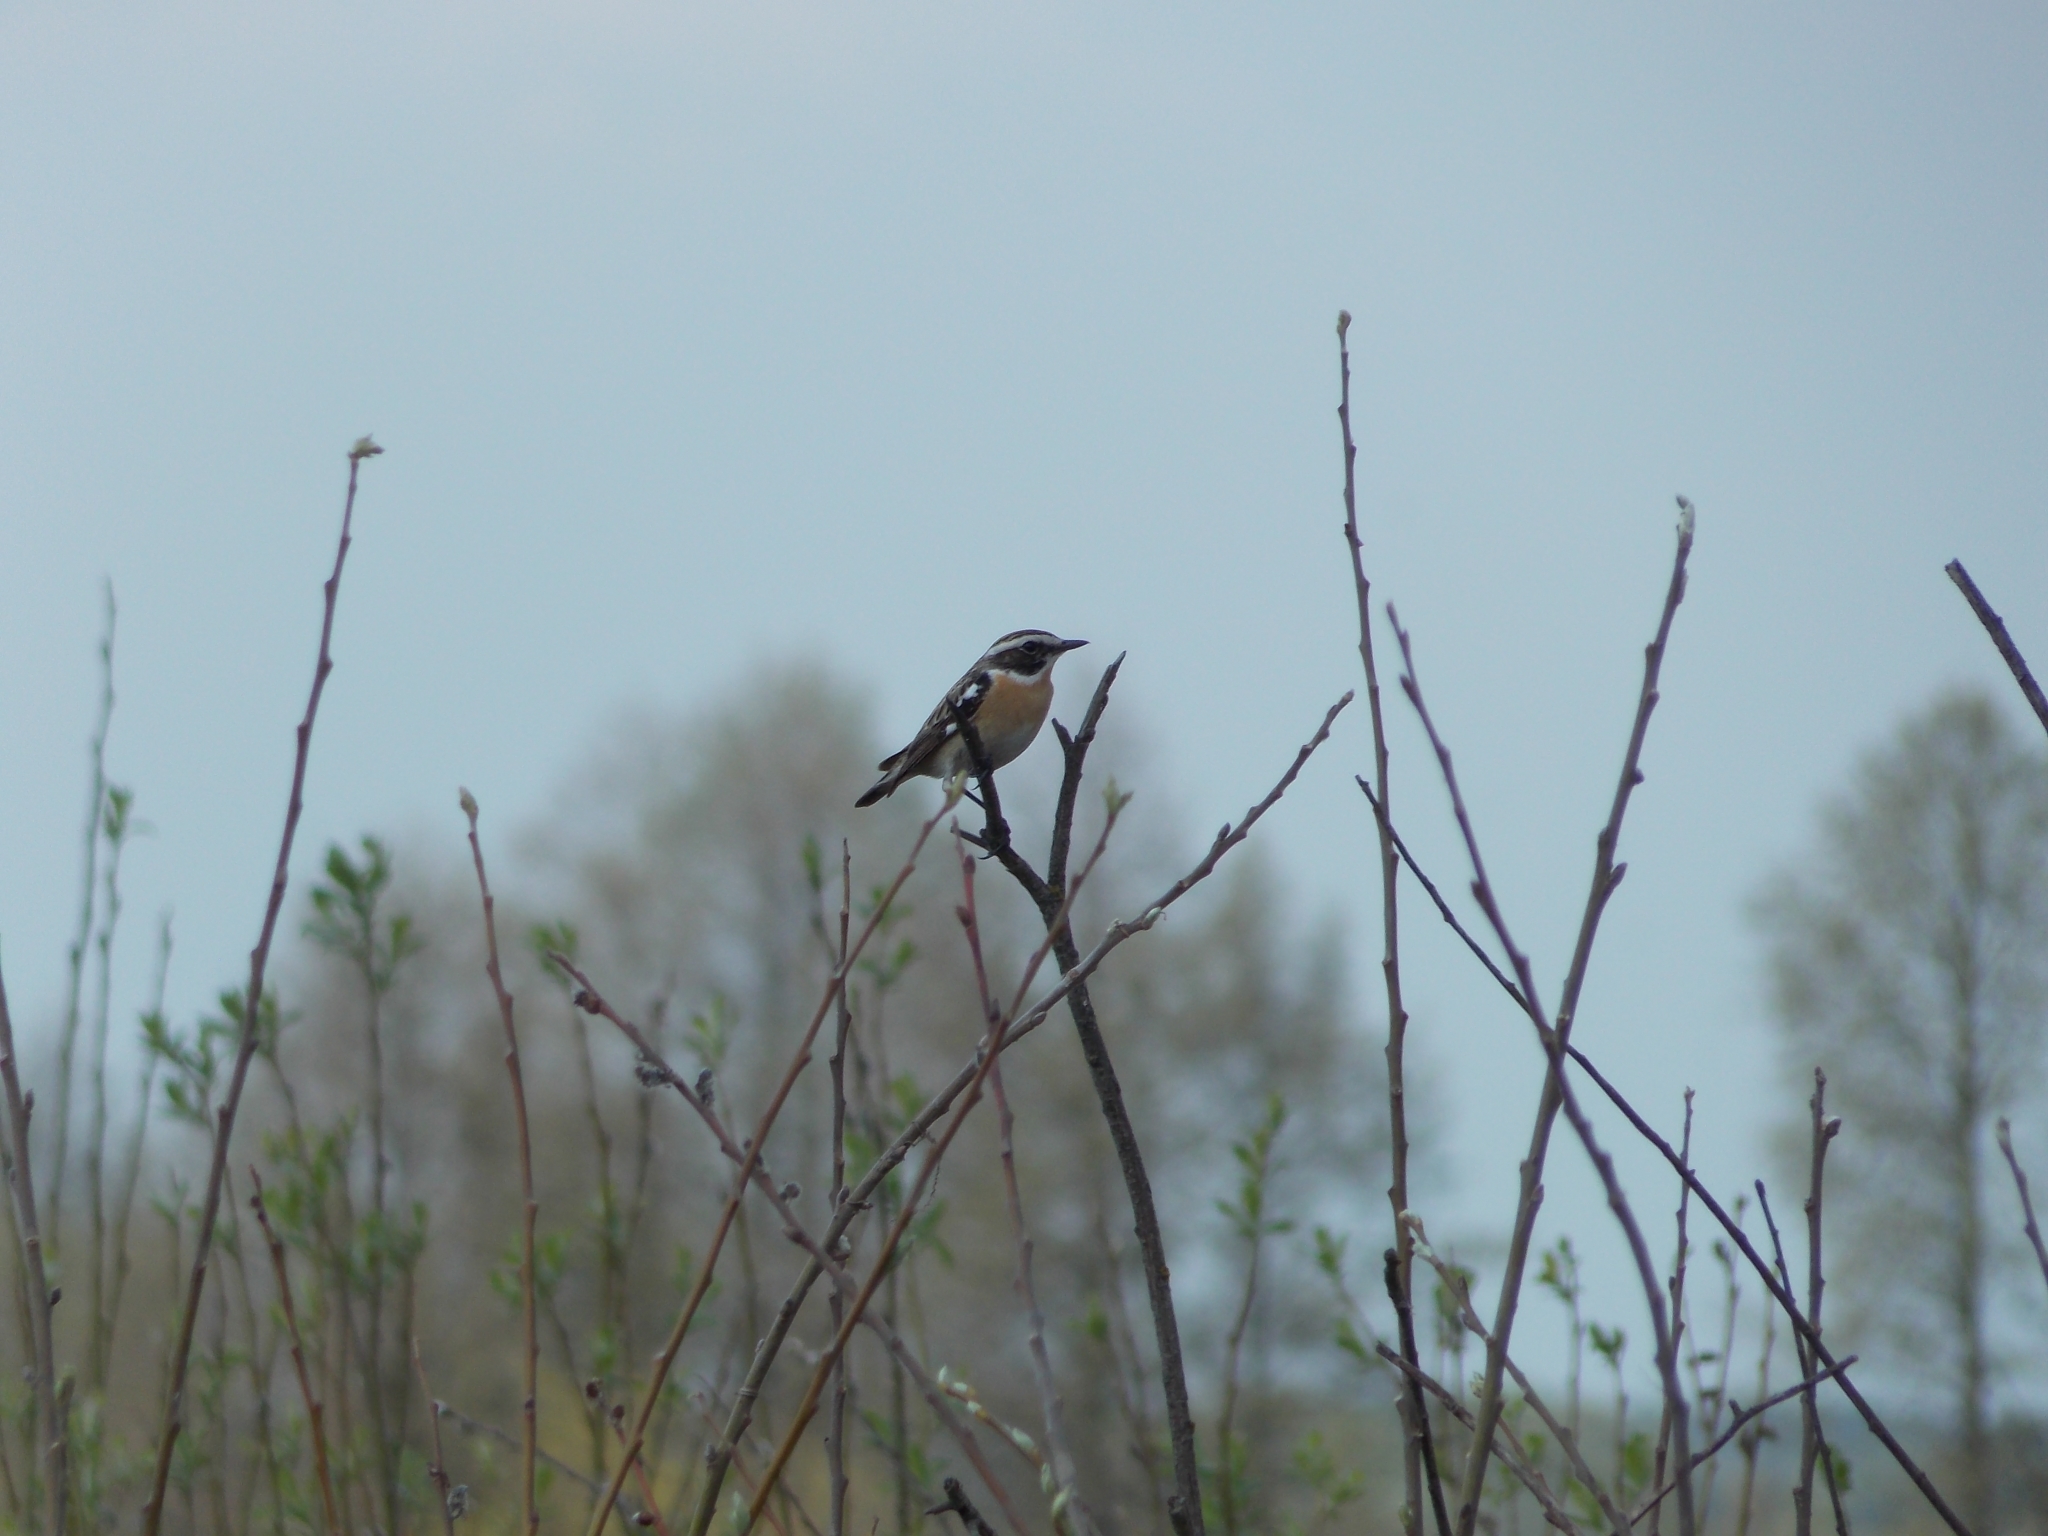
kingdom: Animalia
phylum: Chordata
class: Aves
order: Passeriformes
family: Muscicapidae
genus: Saxicola
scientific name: Saxicola rubetra
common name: Whinchat
